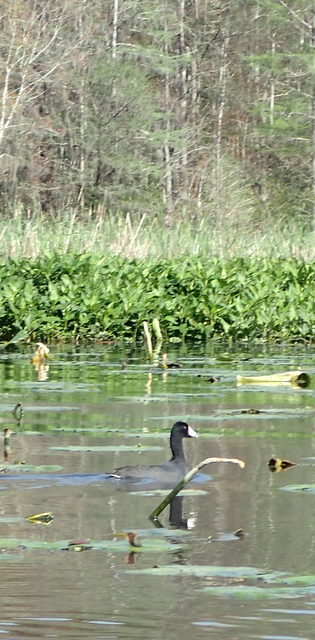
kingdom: Animalia
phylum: Chordata
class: Aves
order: Gruiformes
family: Rallidae
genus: Fulica
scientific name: Fulica americana
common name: American coot
